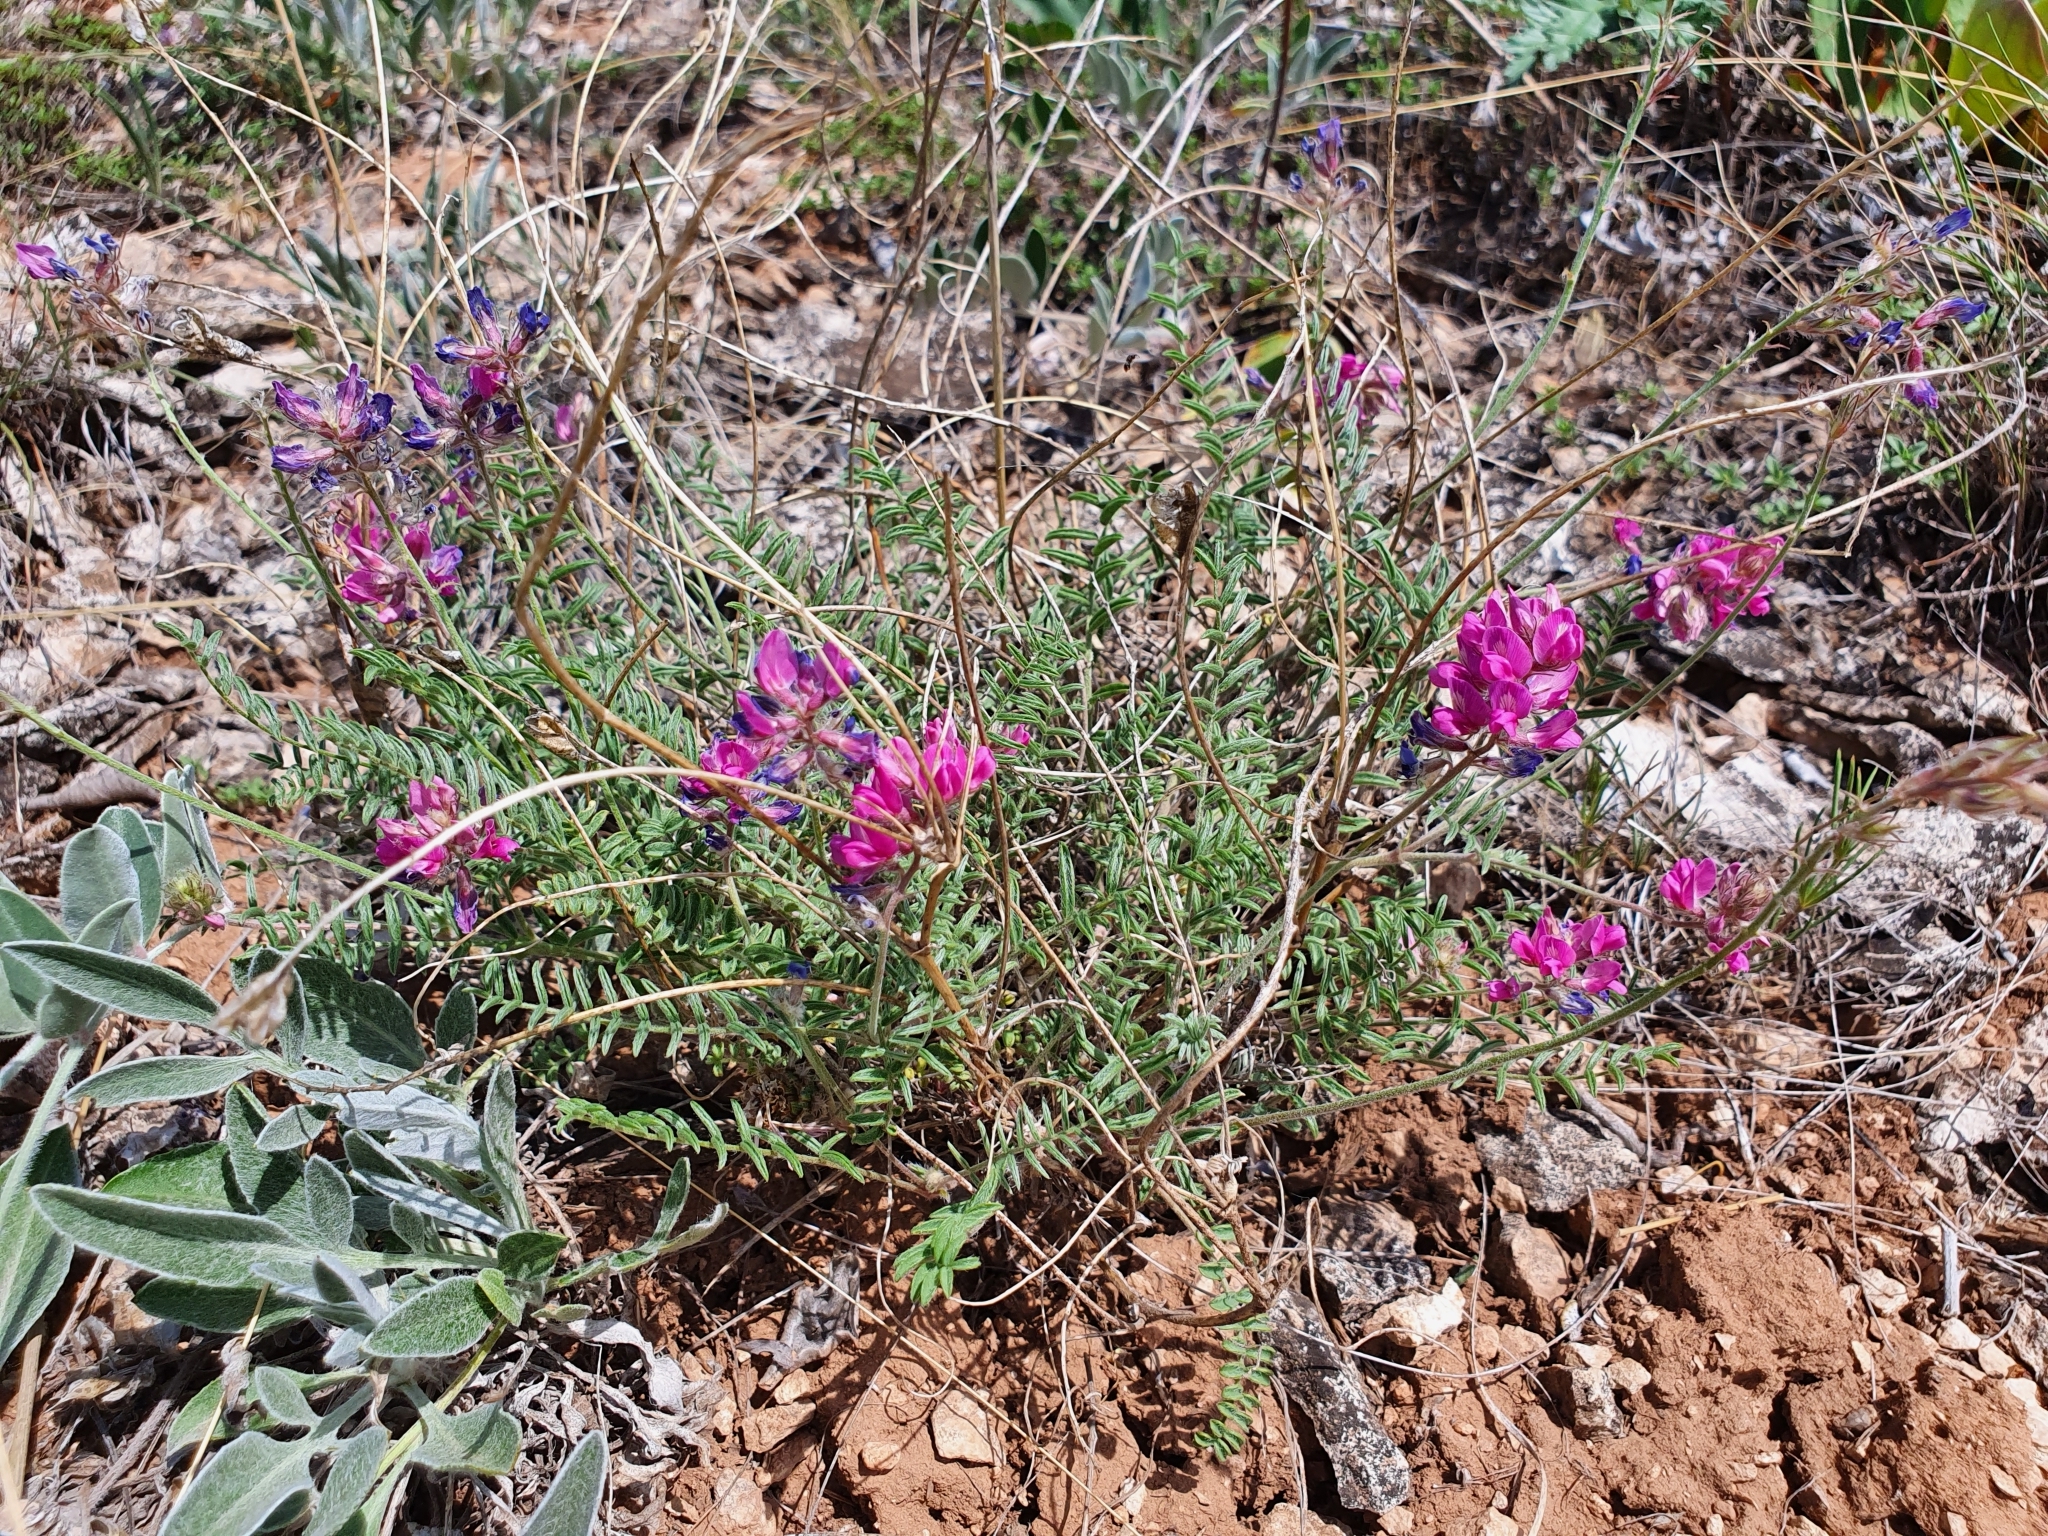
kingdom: Plantae
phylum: Tracheophyta
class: Magnoliopsida
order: Fabales
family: Fabaceae
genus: Oxytropis
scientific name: Oxytropis floribunda
